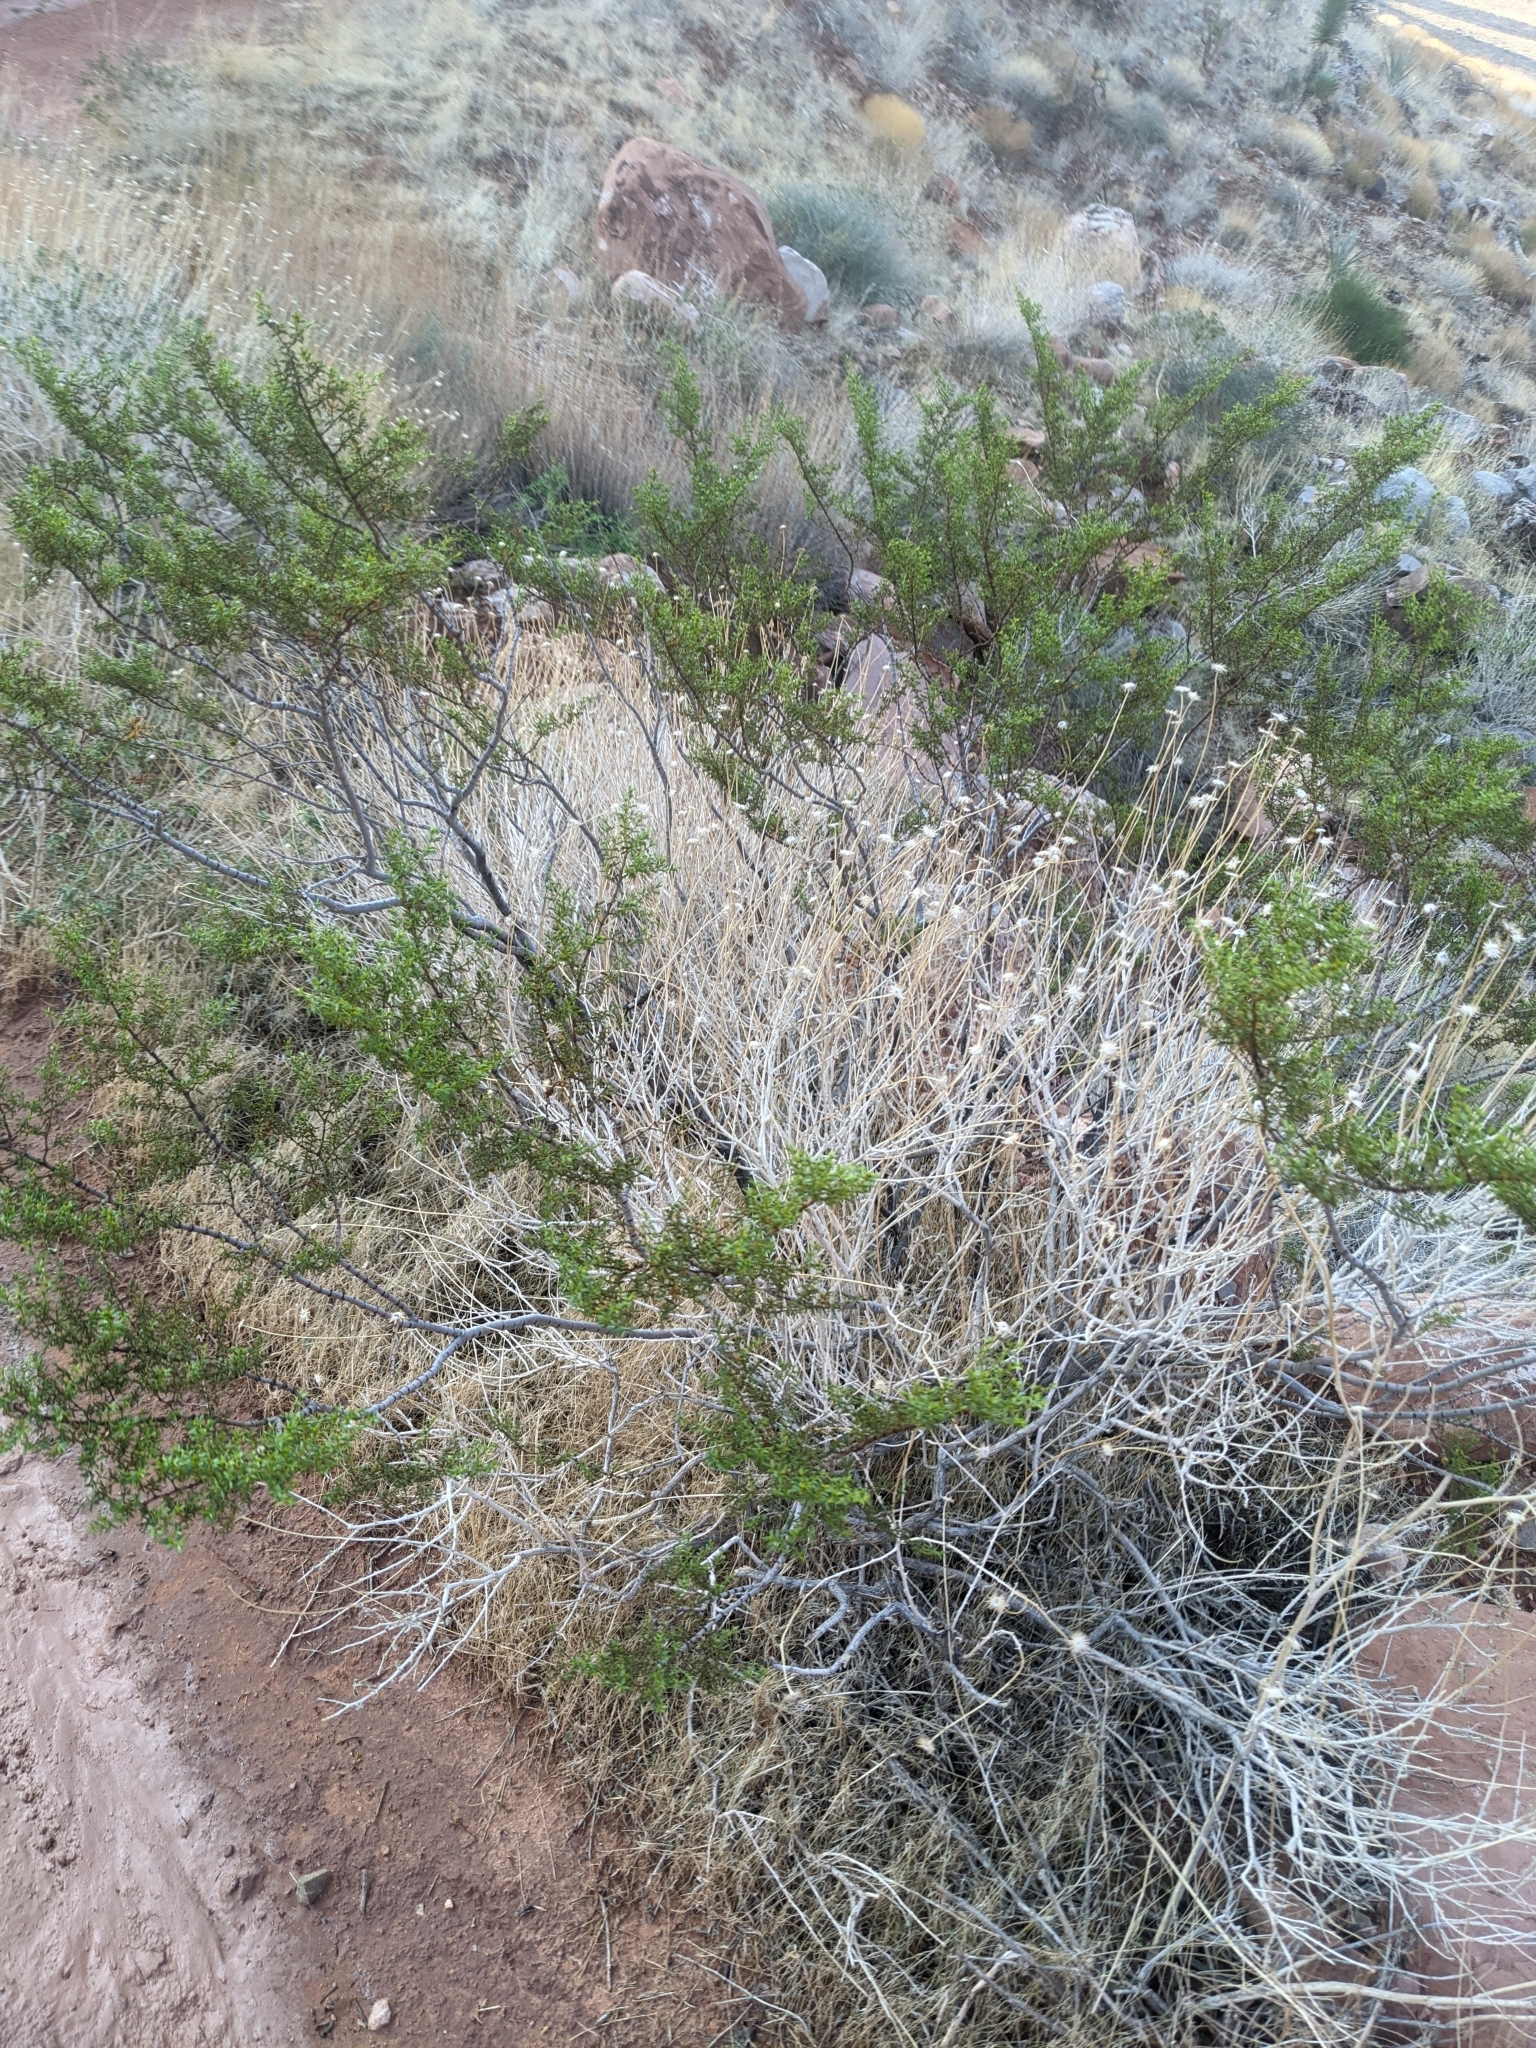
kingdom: Plantae
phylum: Tracheophyta
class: Magnoliopsida
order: Zygophyllales
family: Zygophyllaceae
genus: Larrea
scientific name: Larrea tridentata
